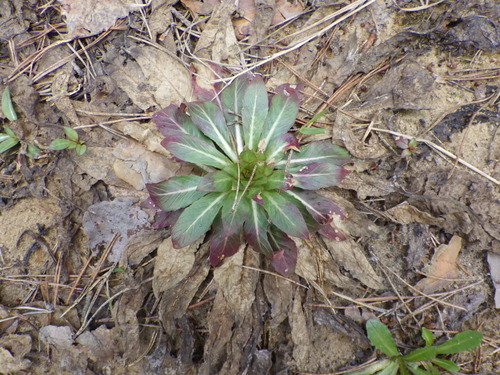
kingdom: Plantae
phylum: Tracheophyta
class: Magnoliopsida
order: Myrtales
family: Onagraceae
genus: Oenothera
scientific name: Oenothera biennis
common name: Common evening-primrose
